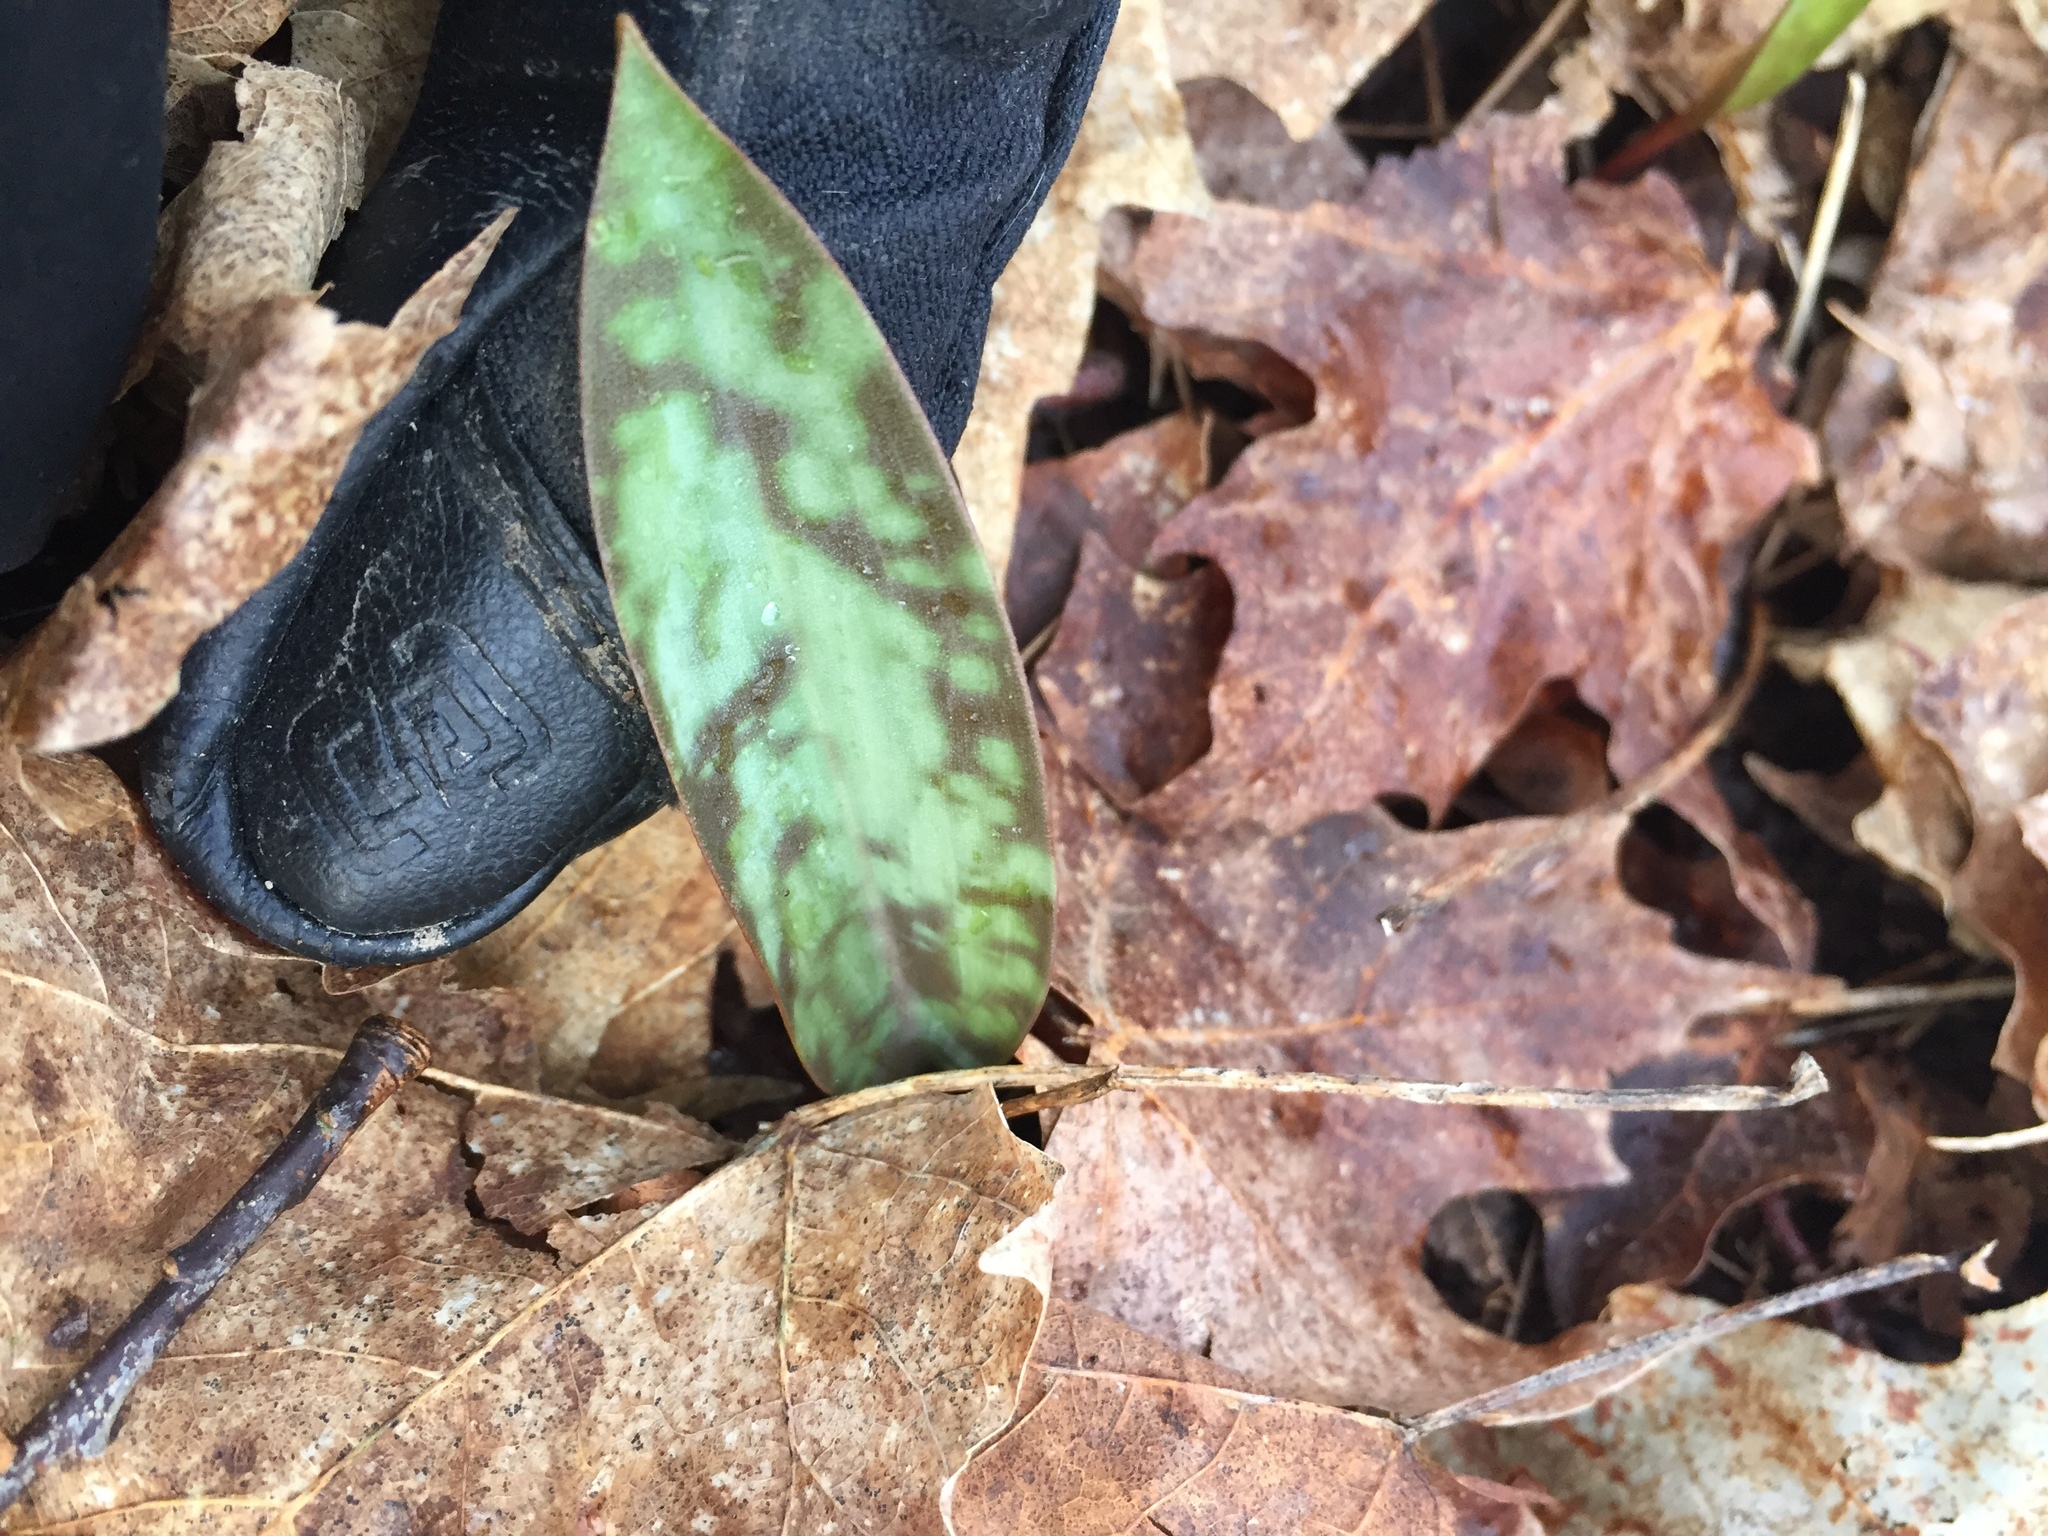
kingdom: Plantae
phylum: Tracheophyta
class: Liliopsida
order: Liliales
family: Liliaceae
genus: Erythronium
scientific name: Erythronium
